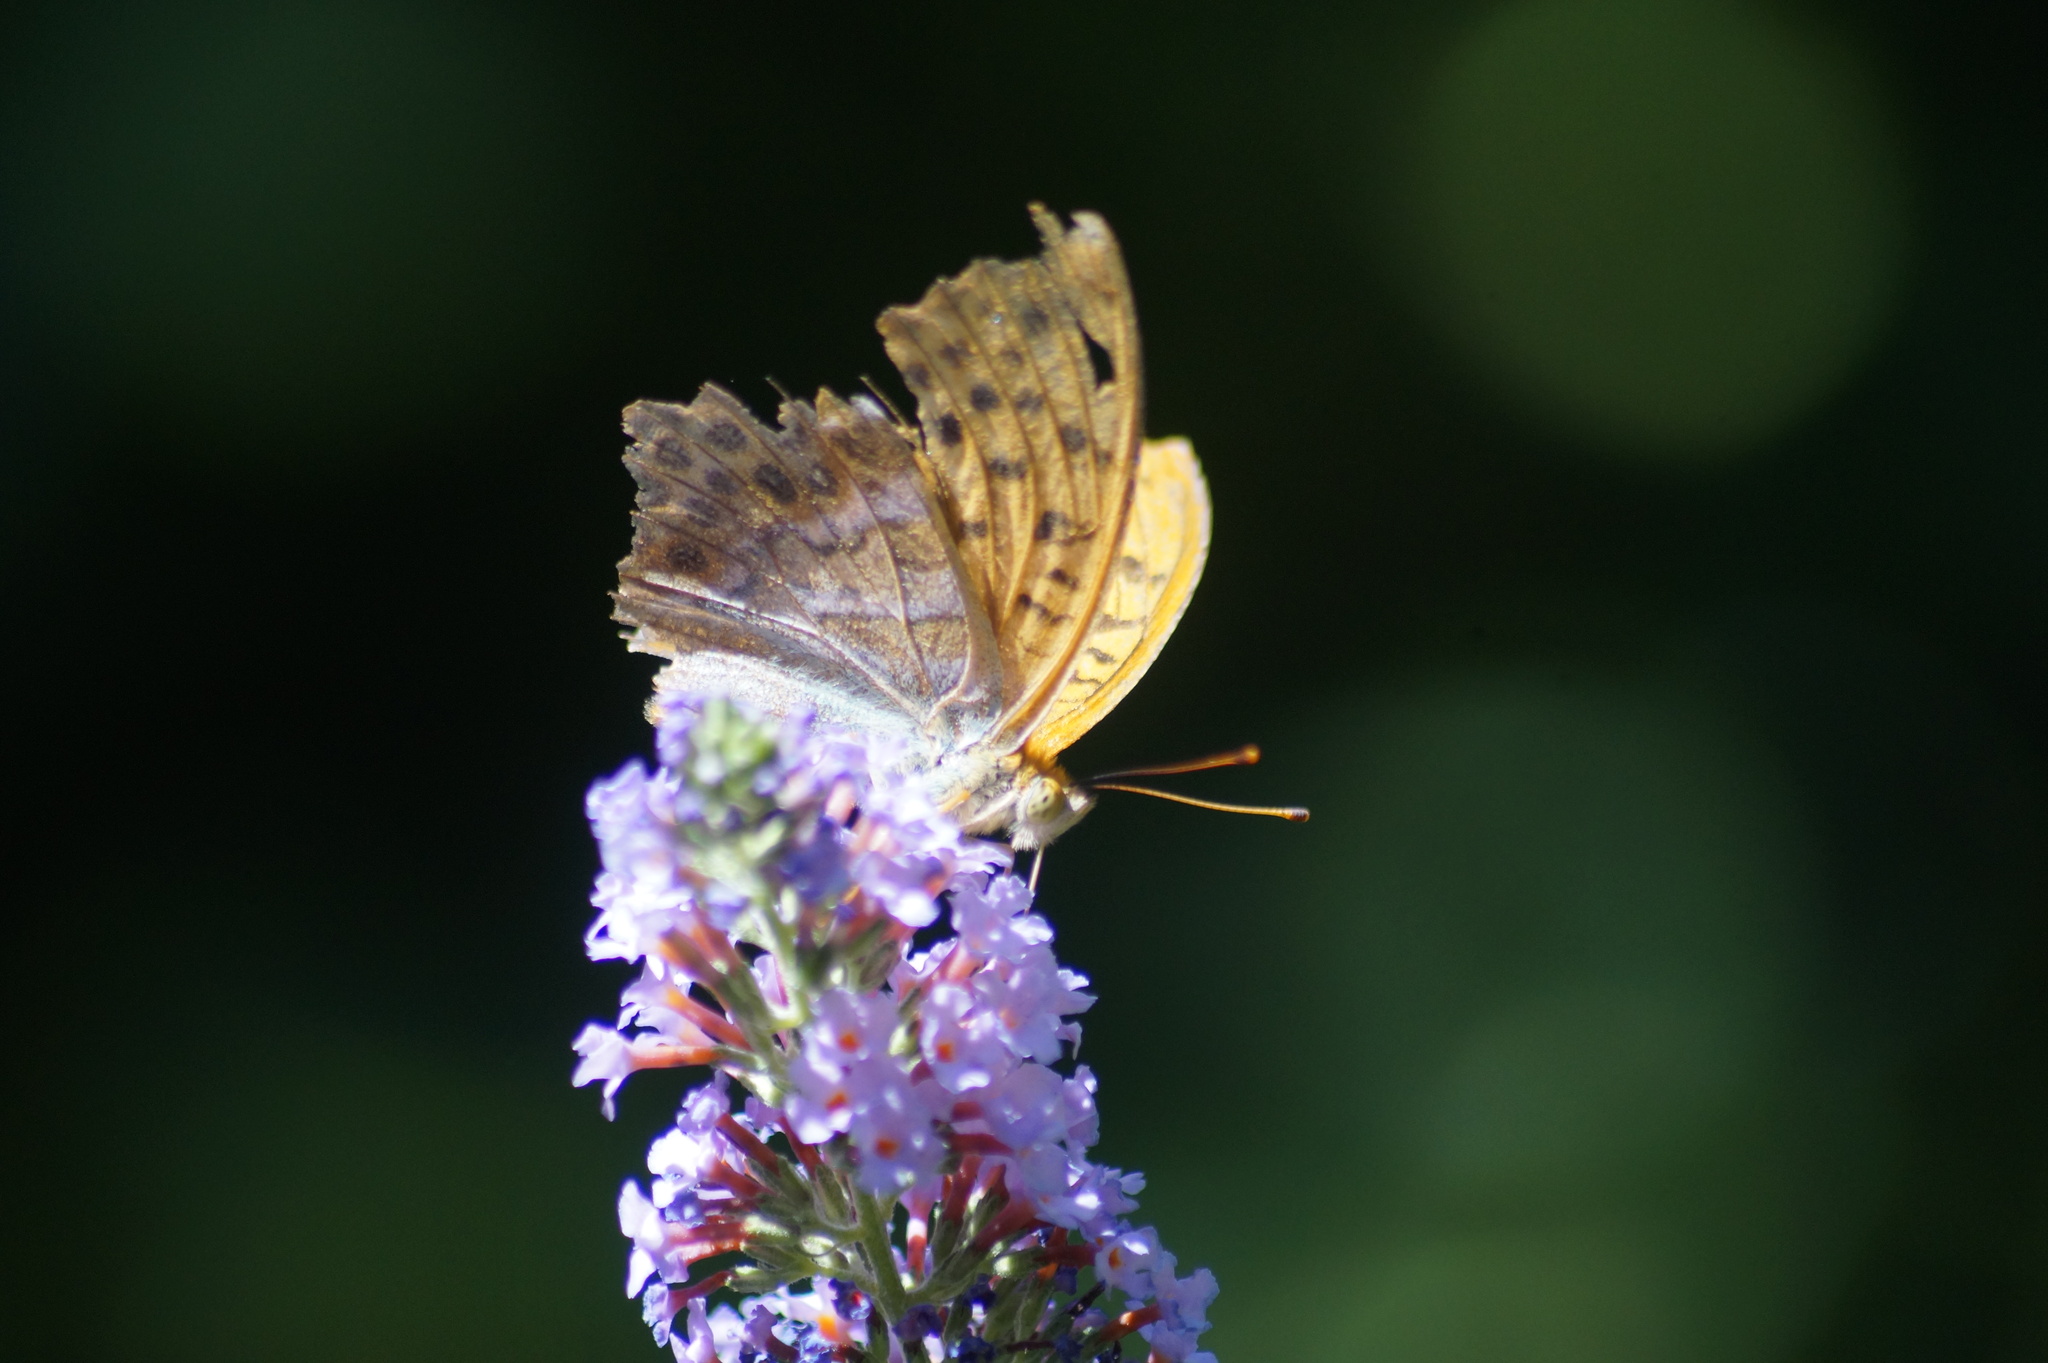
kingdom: Animalia
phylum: Arthropoda
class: Insecta
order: Lepidoptera
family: Nymphalidae
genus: Argynnis
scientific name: Argynnis paphia
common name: Silver-washed fritillary
